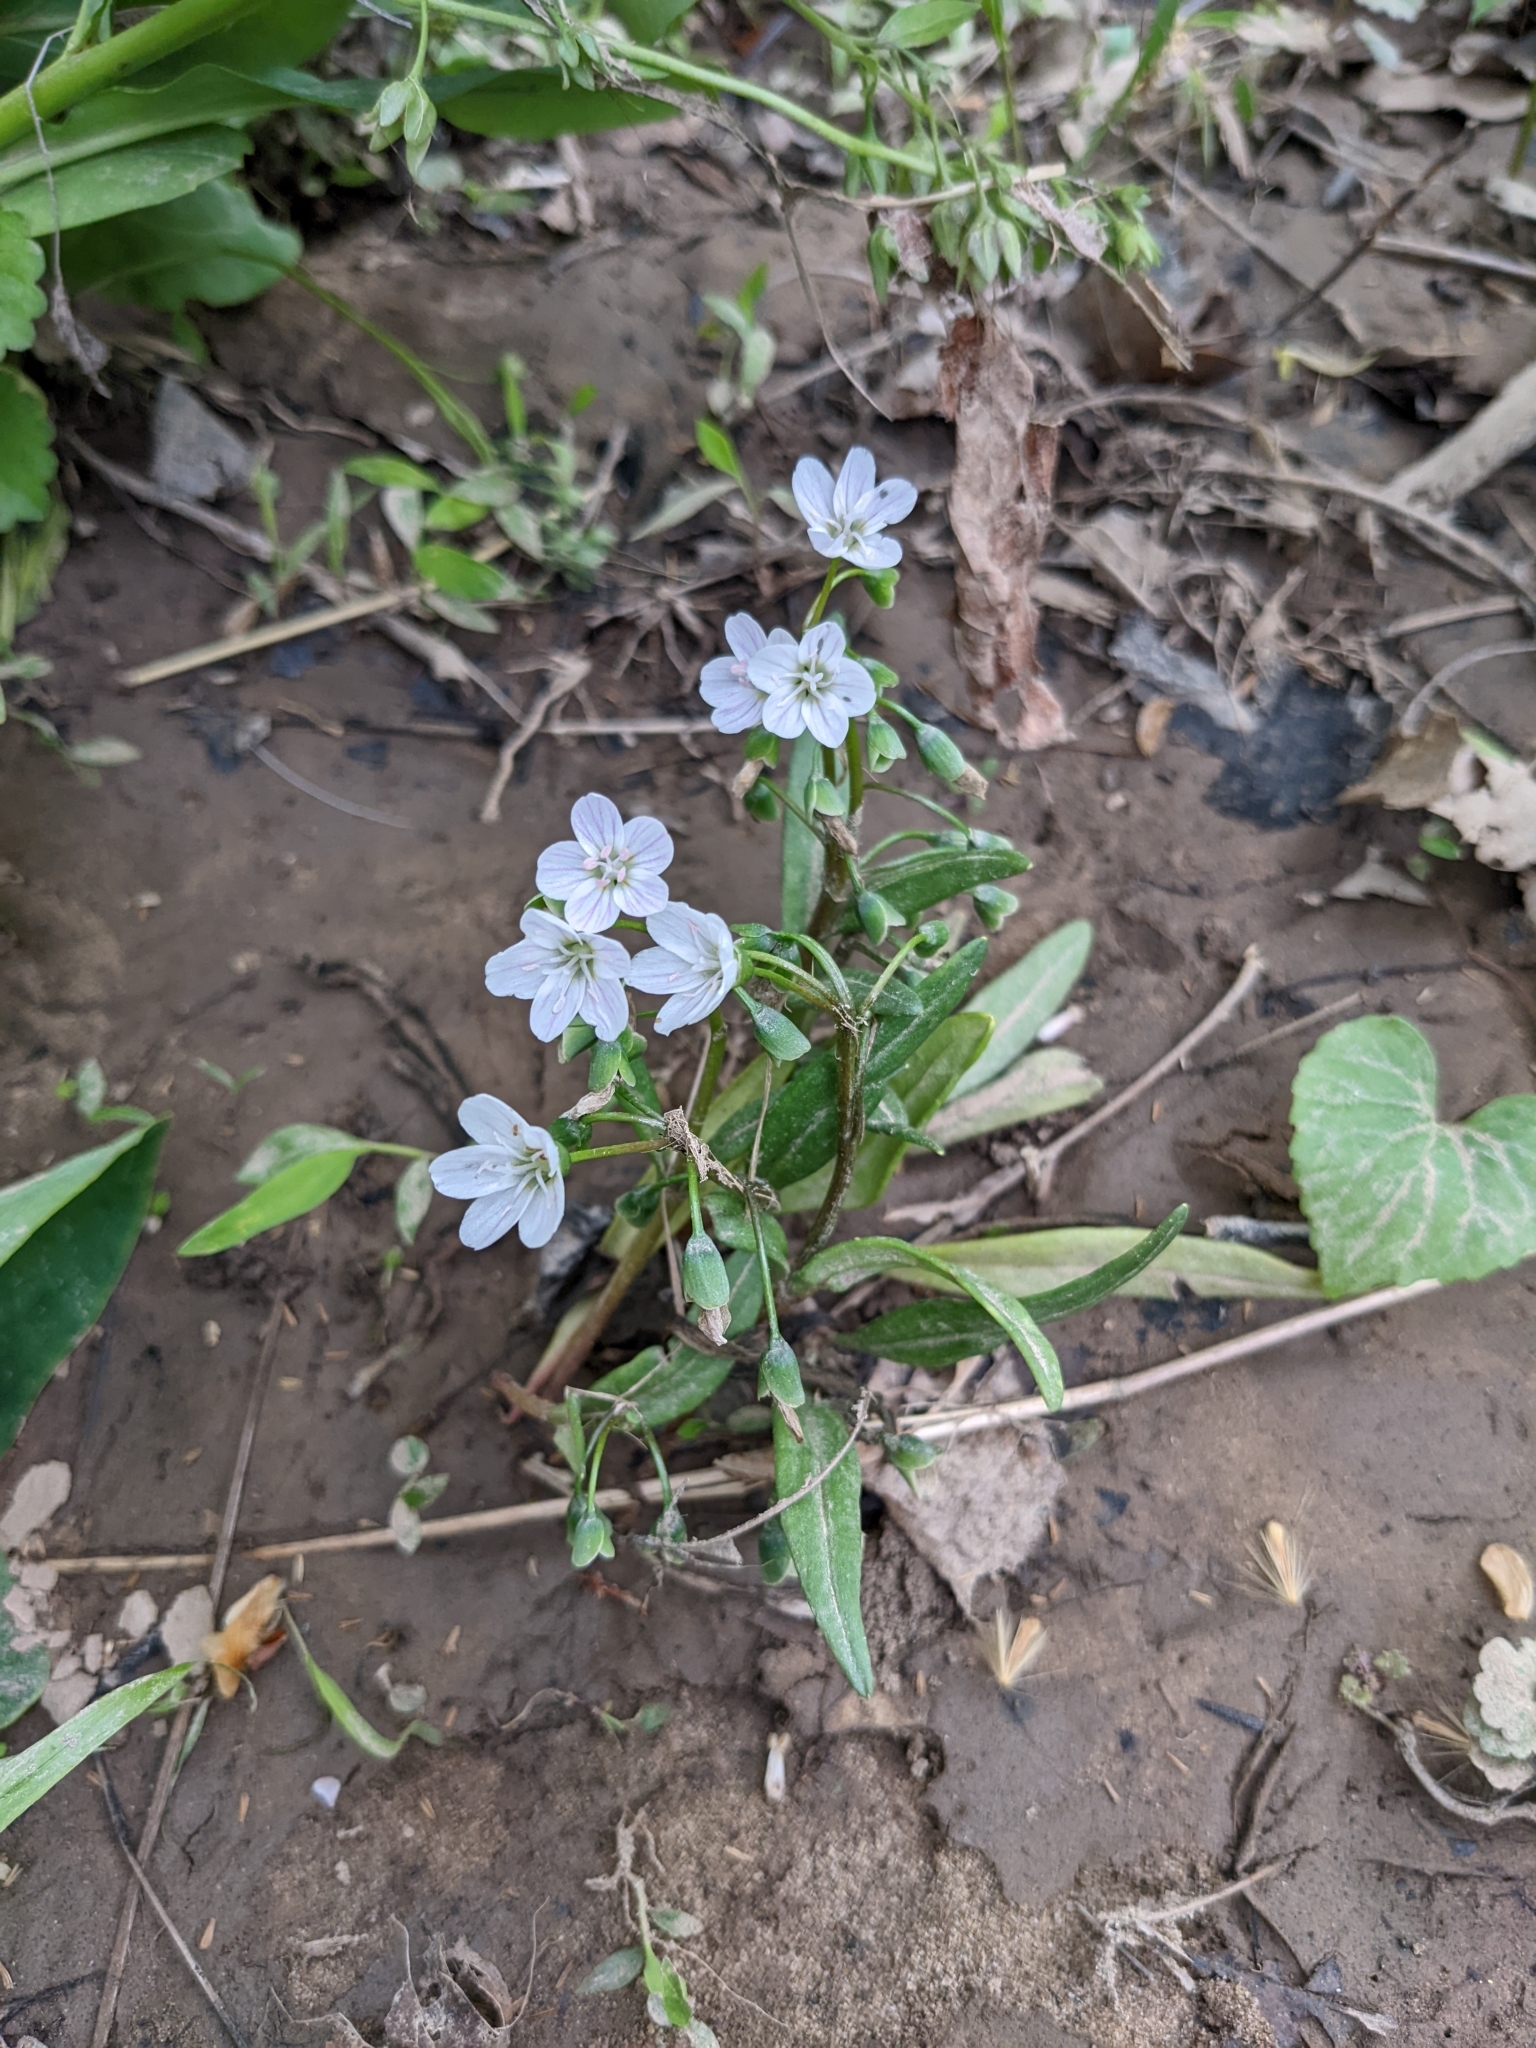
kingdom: Plantae
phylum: Tracheophyta
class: Magnoliopsida
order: Caryophyllales
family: Montiaceae
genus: Claytonia
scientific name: Claytonia virginica
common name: Virginia springbeauty
